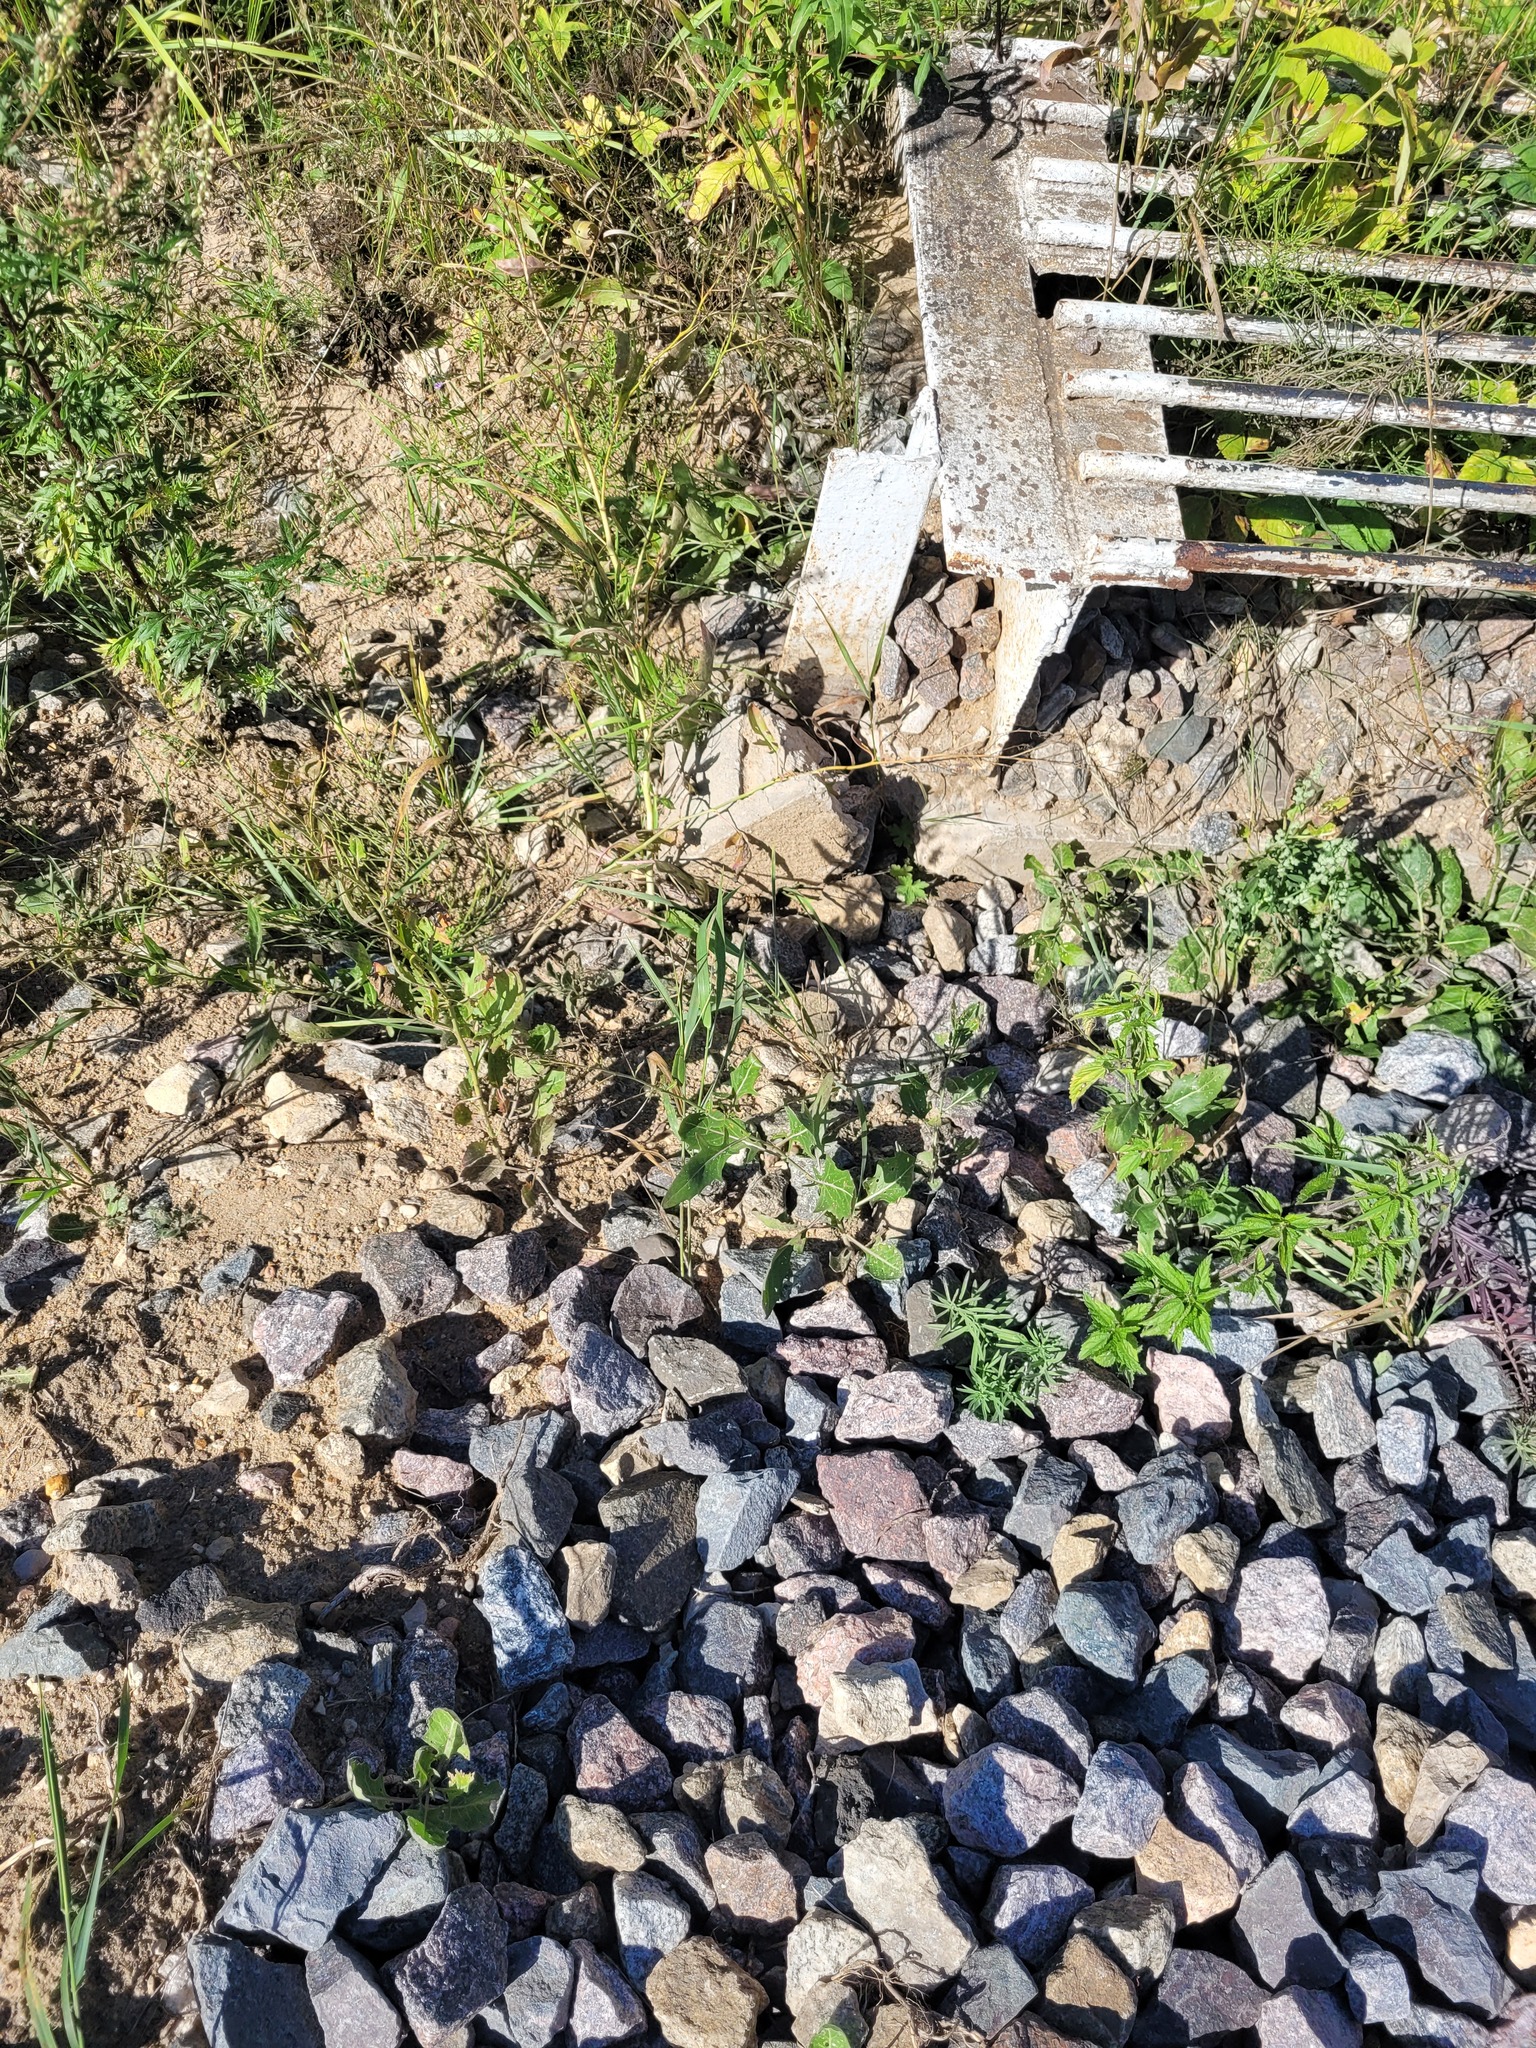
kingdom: Plantae
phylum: Tracheophyta
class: Magnoliopsida
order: Brassicales
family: Brassicaceae
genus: Sisymbrium
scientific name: Sisymbrium volgense
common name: Russian mustard
